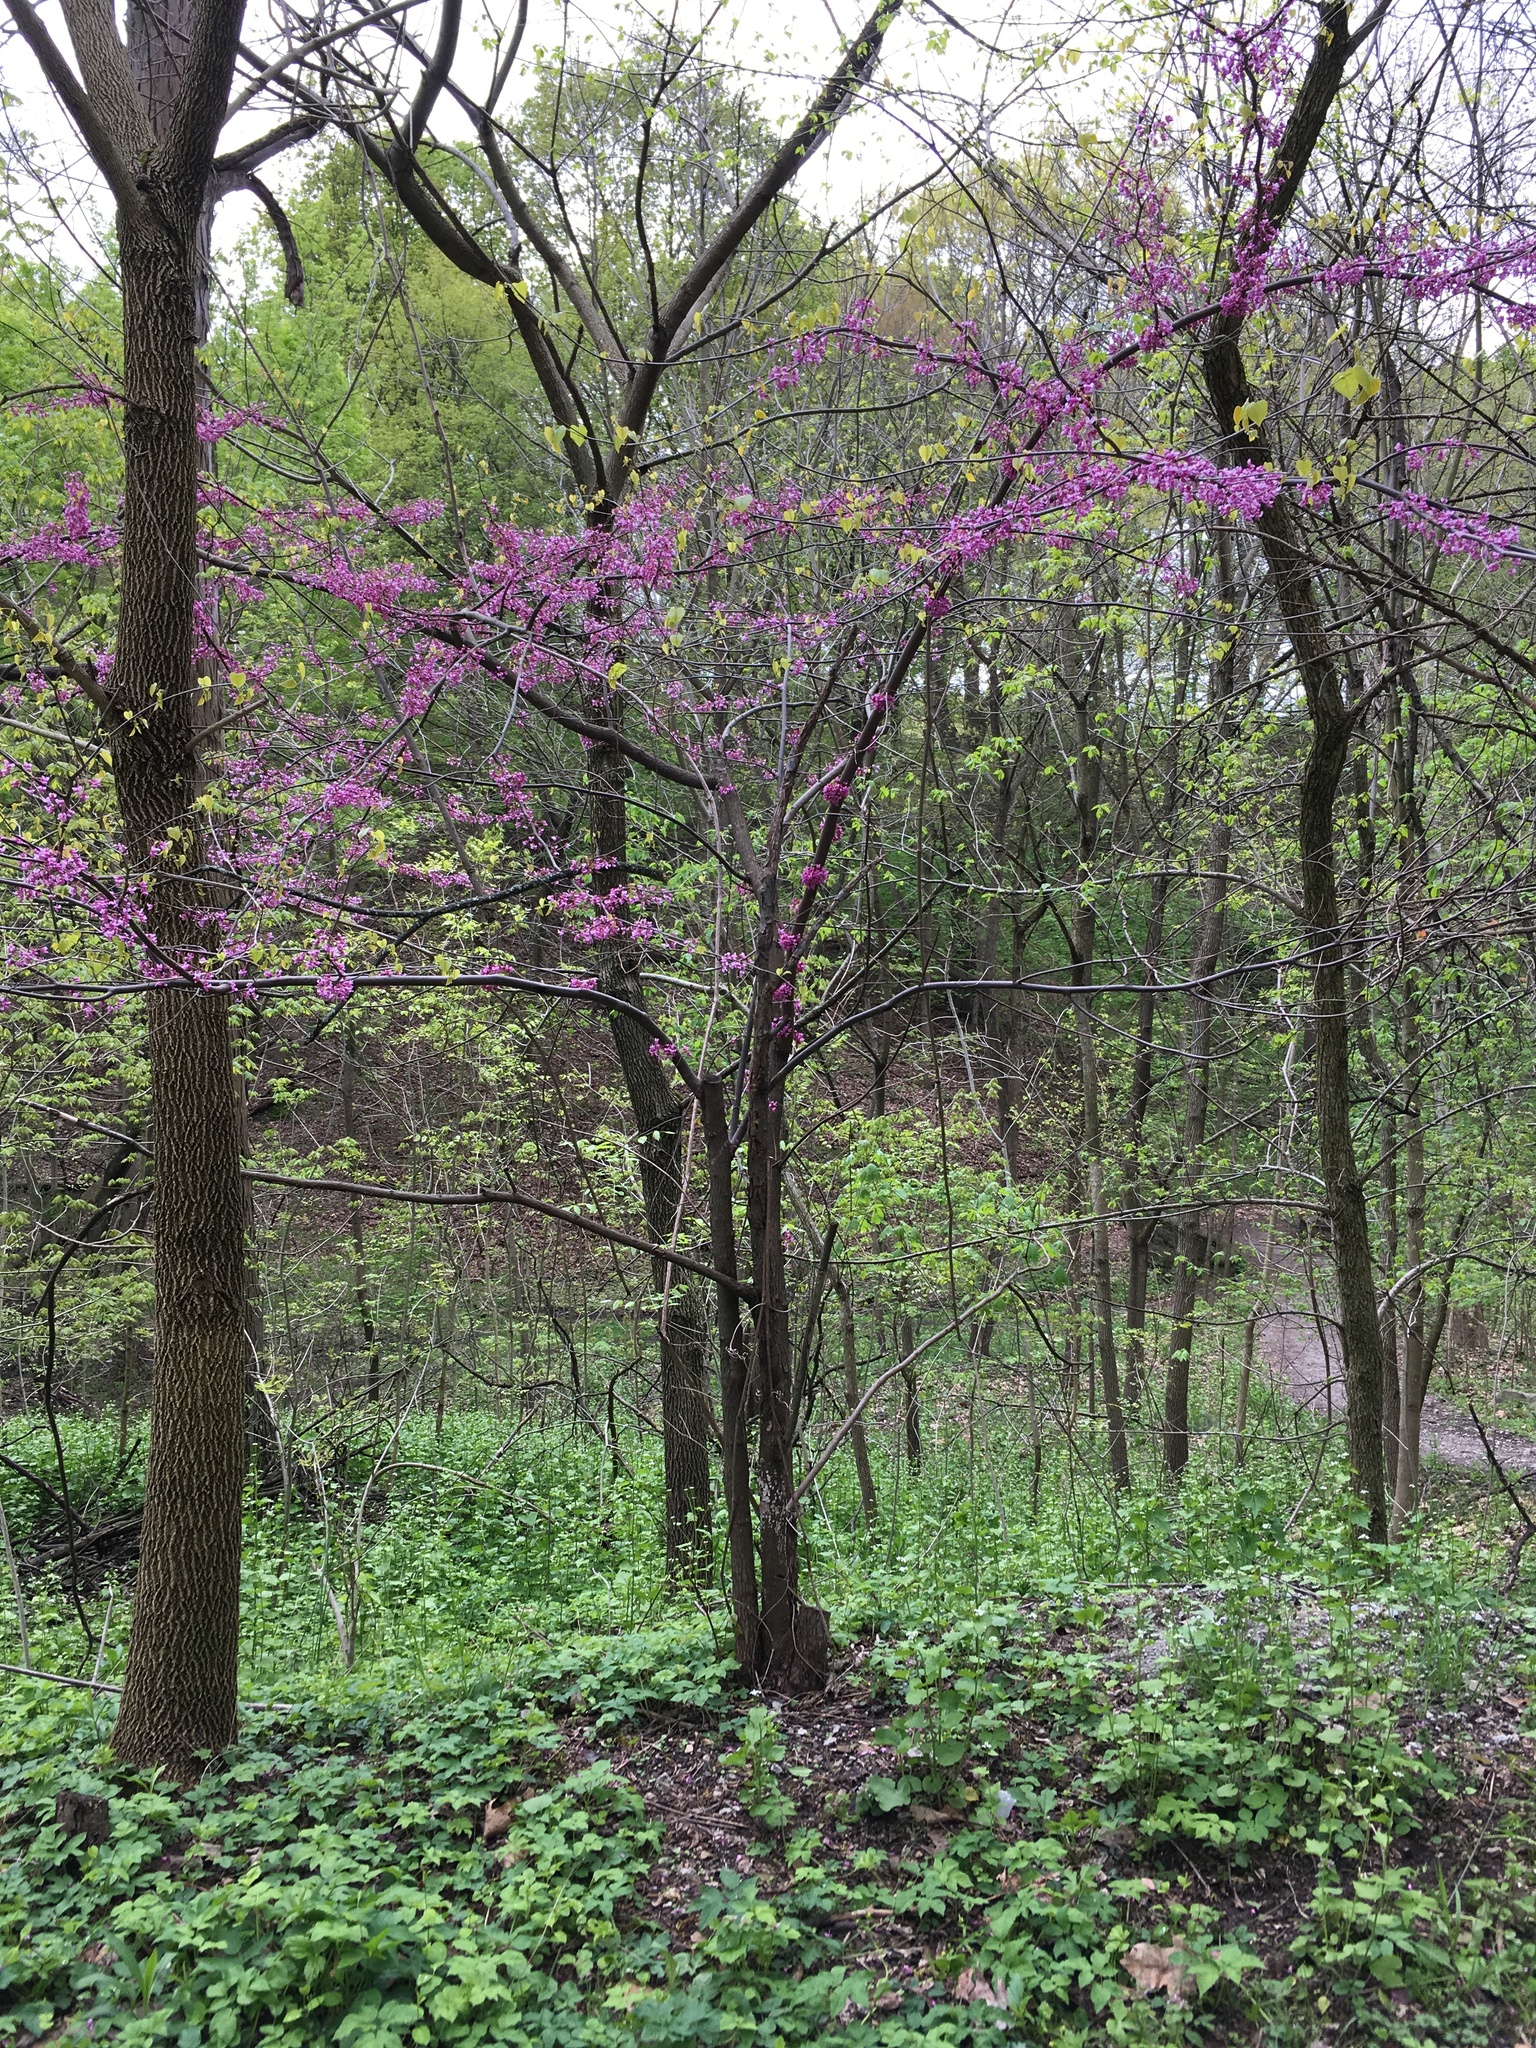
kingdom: Plantae
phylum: Tracheophyta
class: Magnoliopsida
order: Fabales
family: Fabaceae
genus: Cercis
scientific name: Cercis canadensis
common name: Eastern redbud
